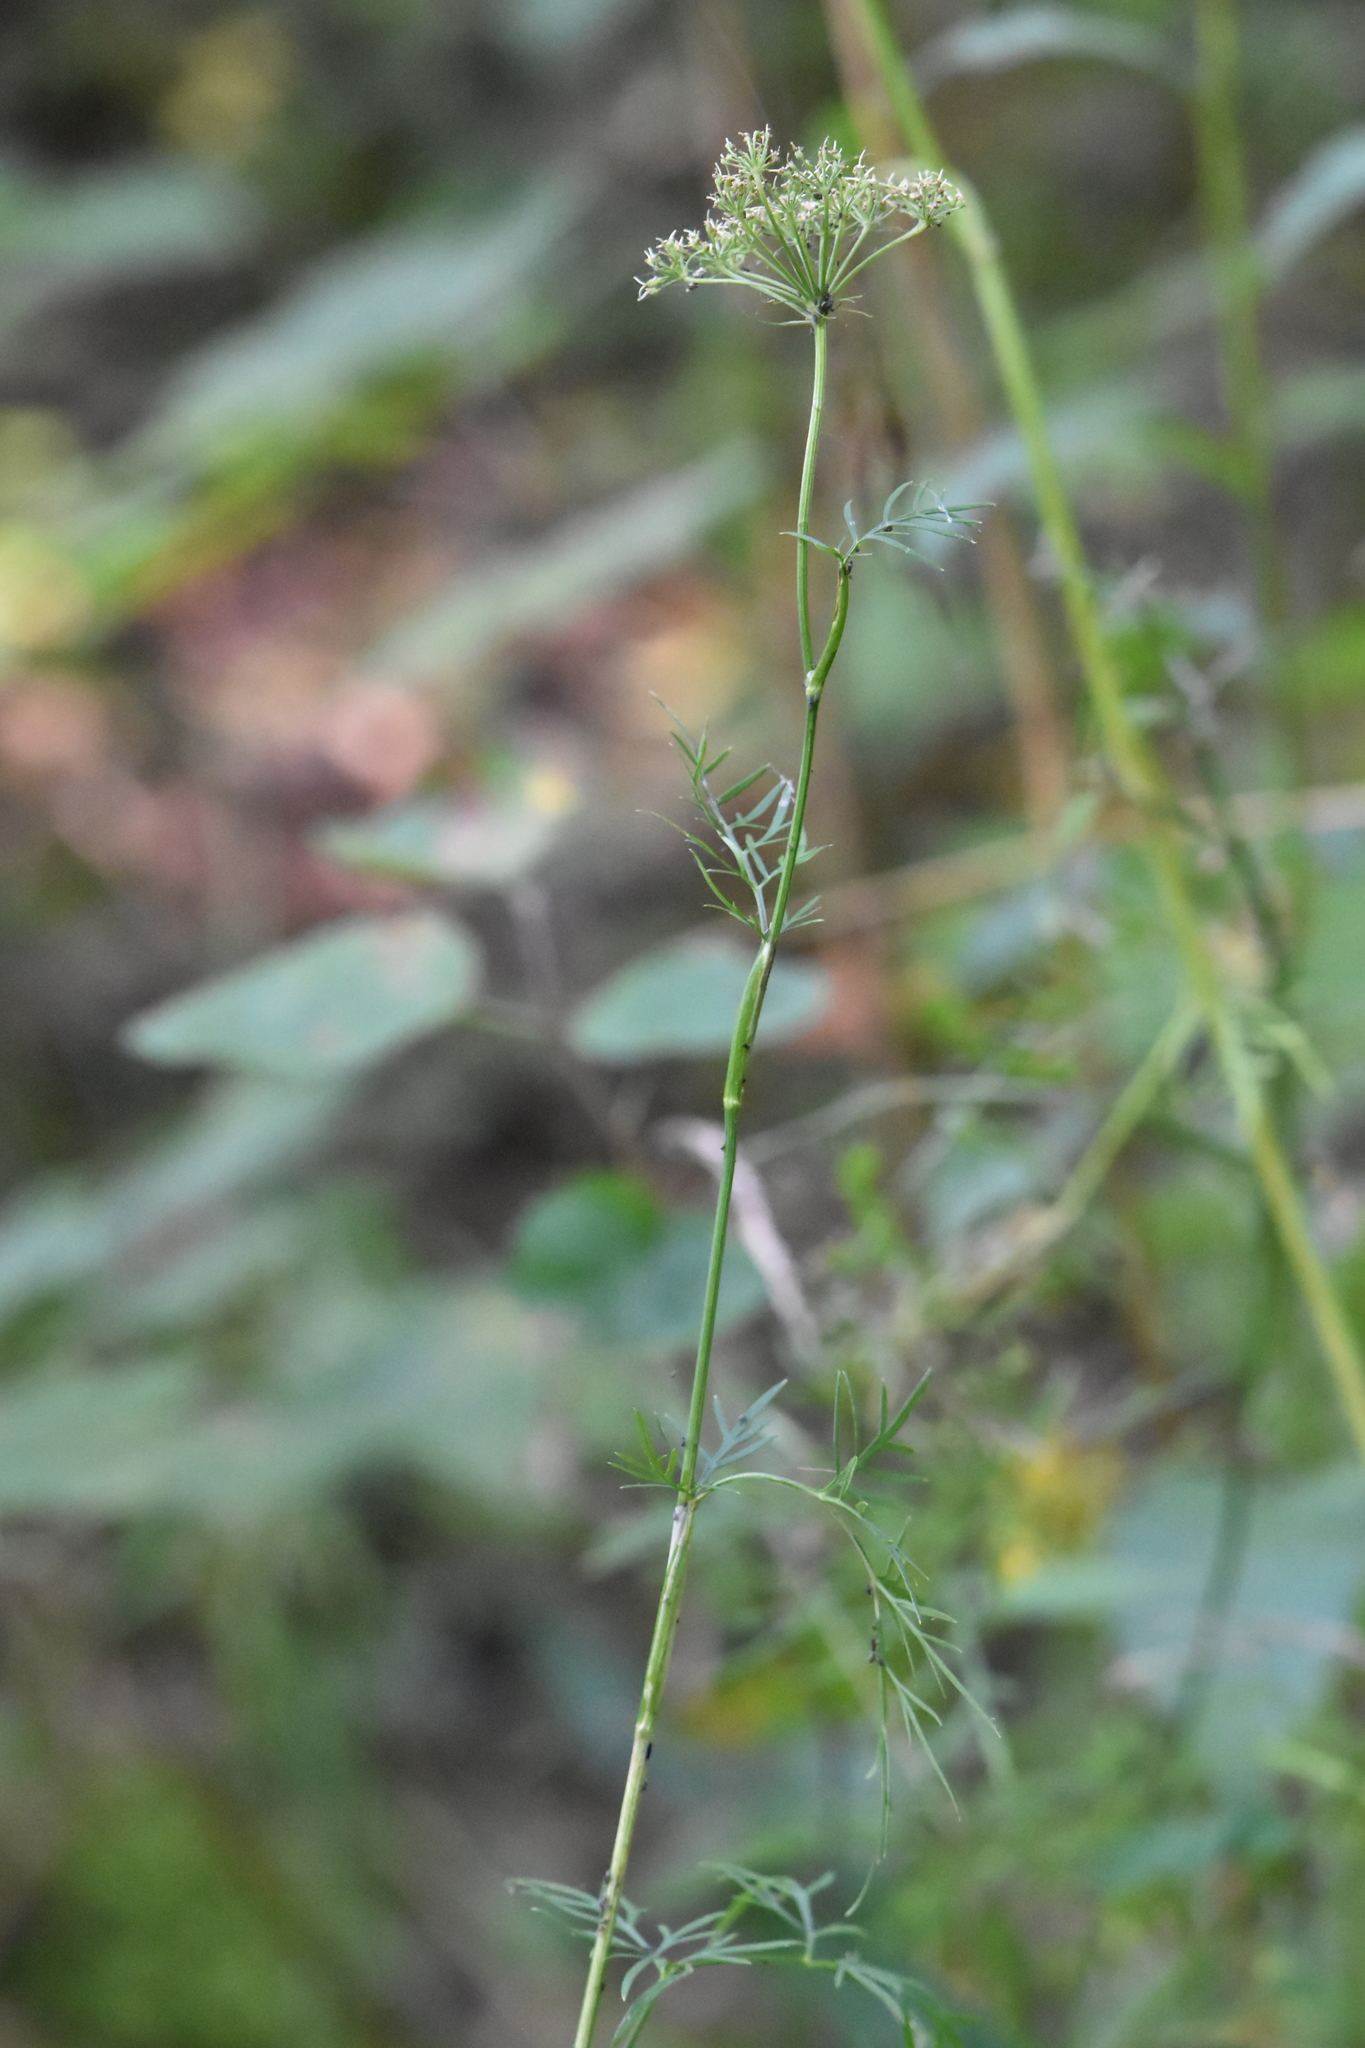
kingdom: Plantae
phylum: Tracheophyta
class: Magnoliopsida
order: Apiales
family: Apiaceae
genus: Kadenia
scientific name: Kadenia dubia
